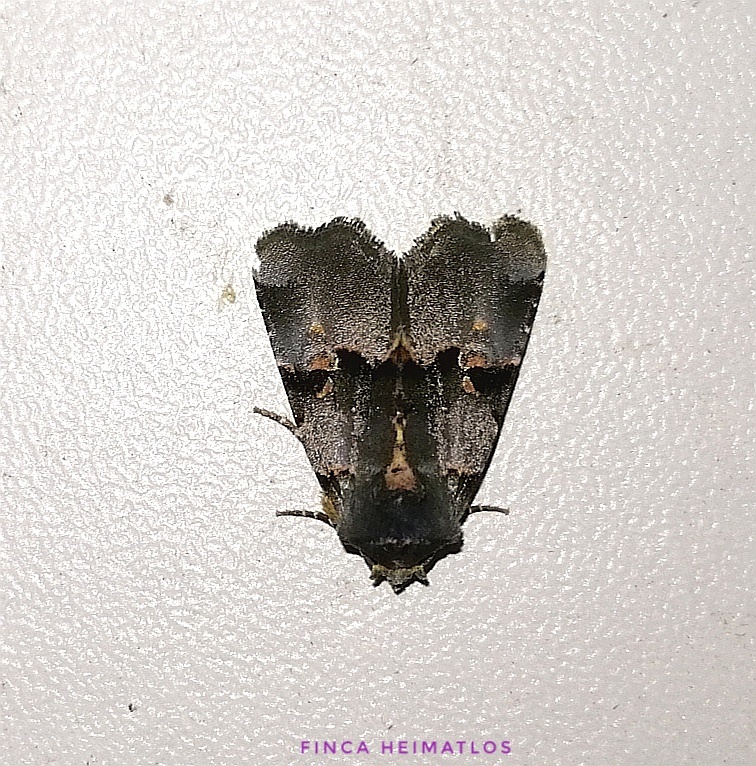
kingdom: Animalia
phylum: Arthropoda
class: Insecta
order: Lepidoptera
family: Noctuidae
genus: Fracara
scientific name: Fracara viridata
